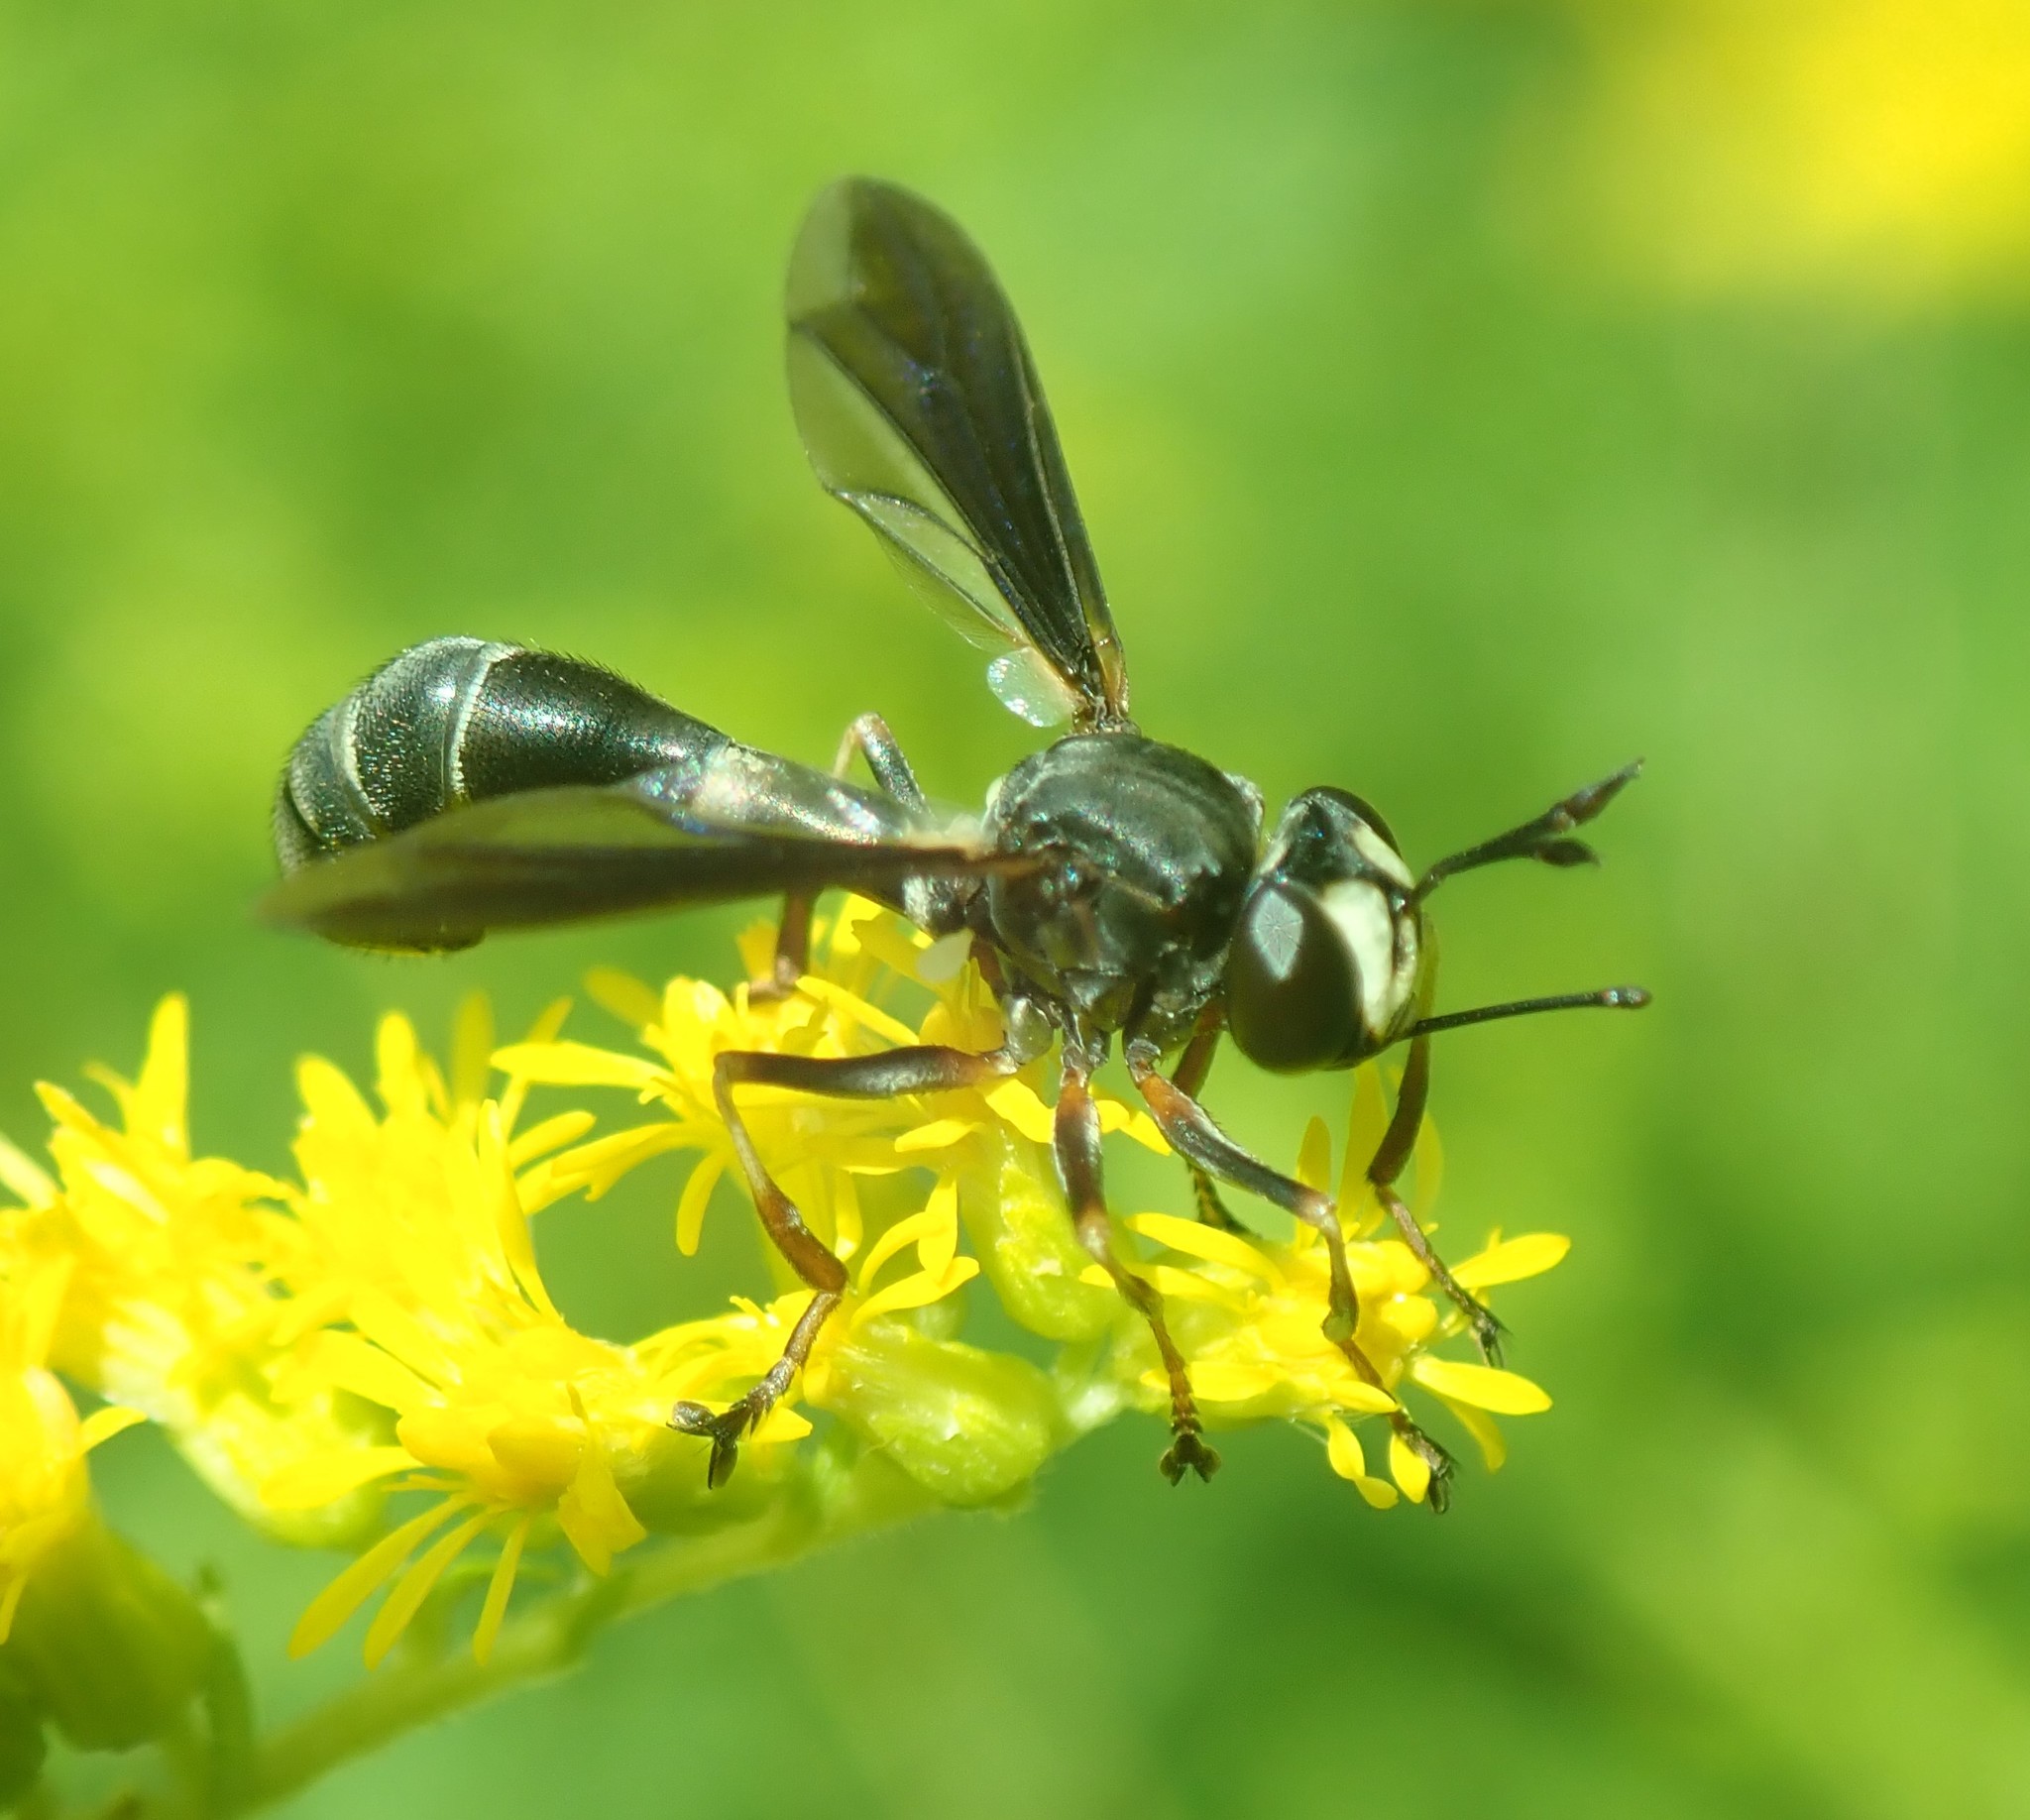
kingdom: Animalia
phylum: Arthropoda
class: Insecta
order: Diptera
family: Conopidae
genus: Physocephala
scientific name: Physocephala tibialis
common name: Common eastern physocephala
